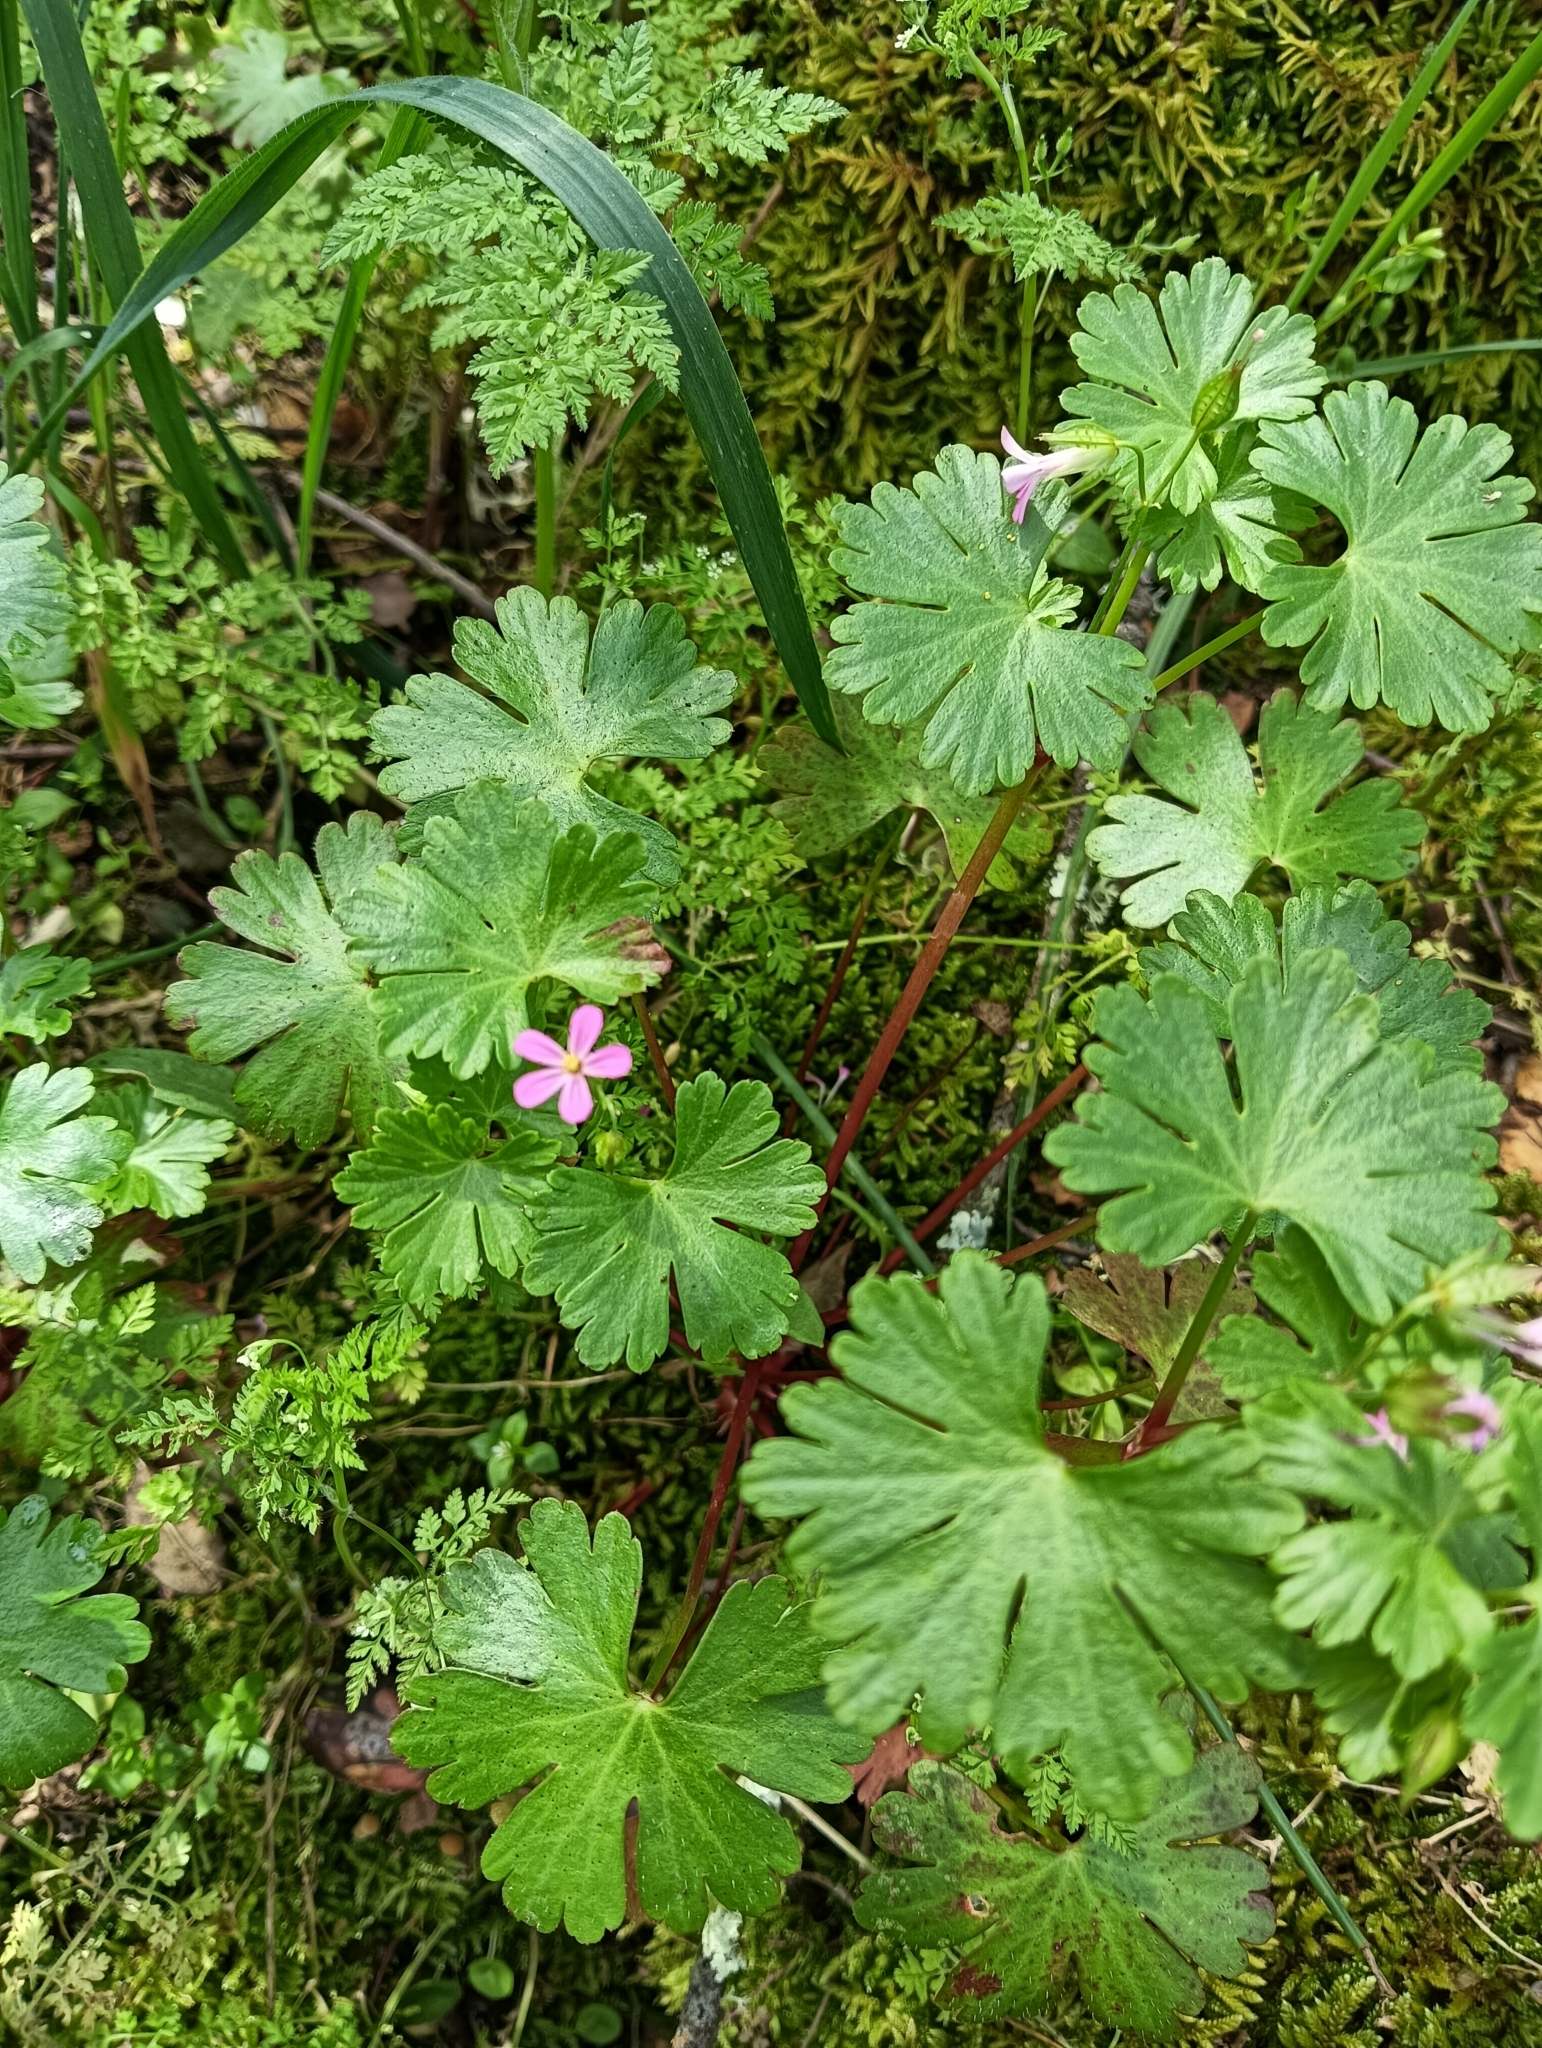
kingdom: Plantae
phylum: Tracheophyta
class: Magnoliopsida
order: Geraniales
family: Geraniaceae
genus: Geranium
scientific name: Geranium lucidum
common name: Shining crane's-bill
